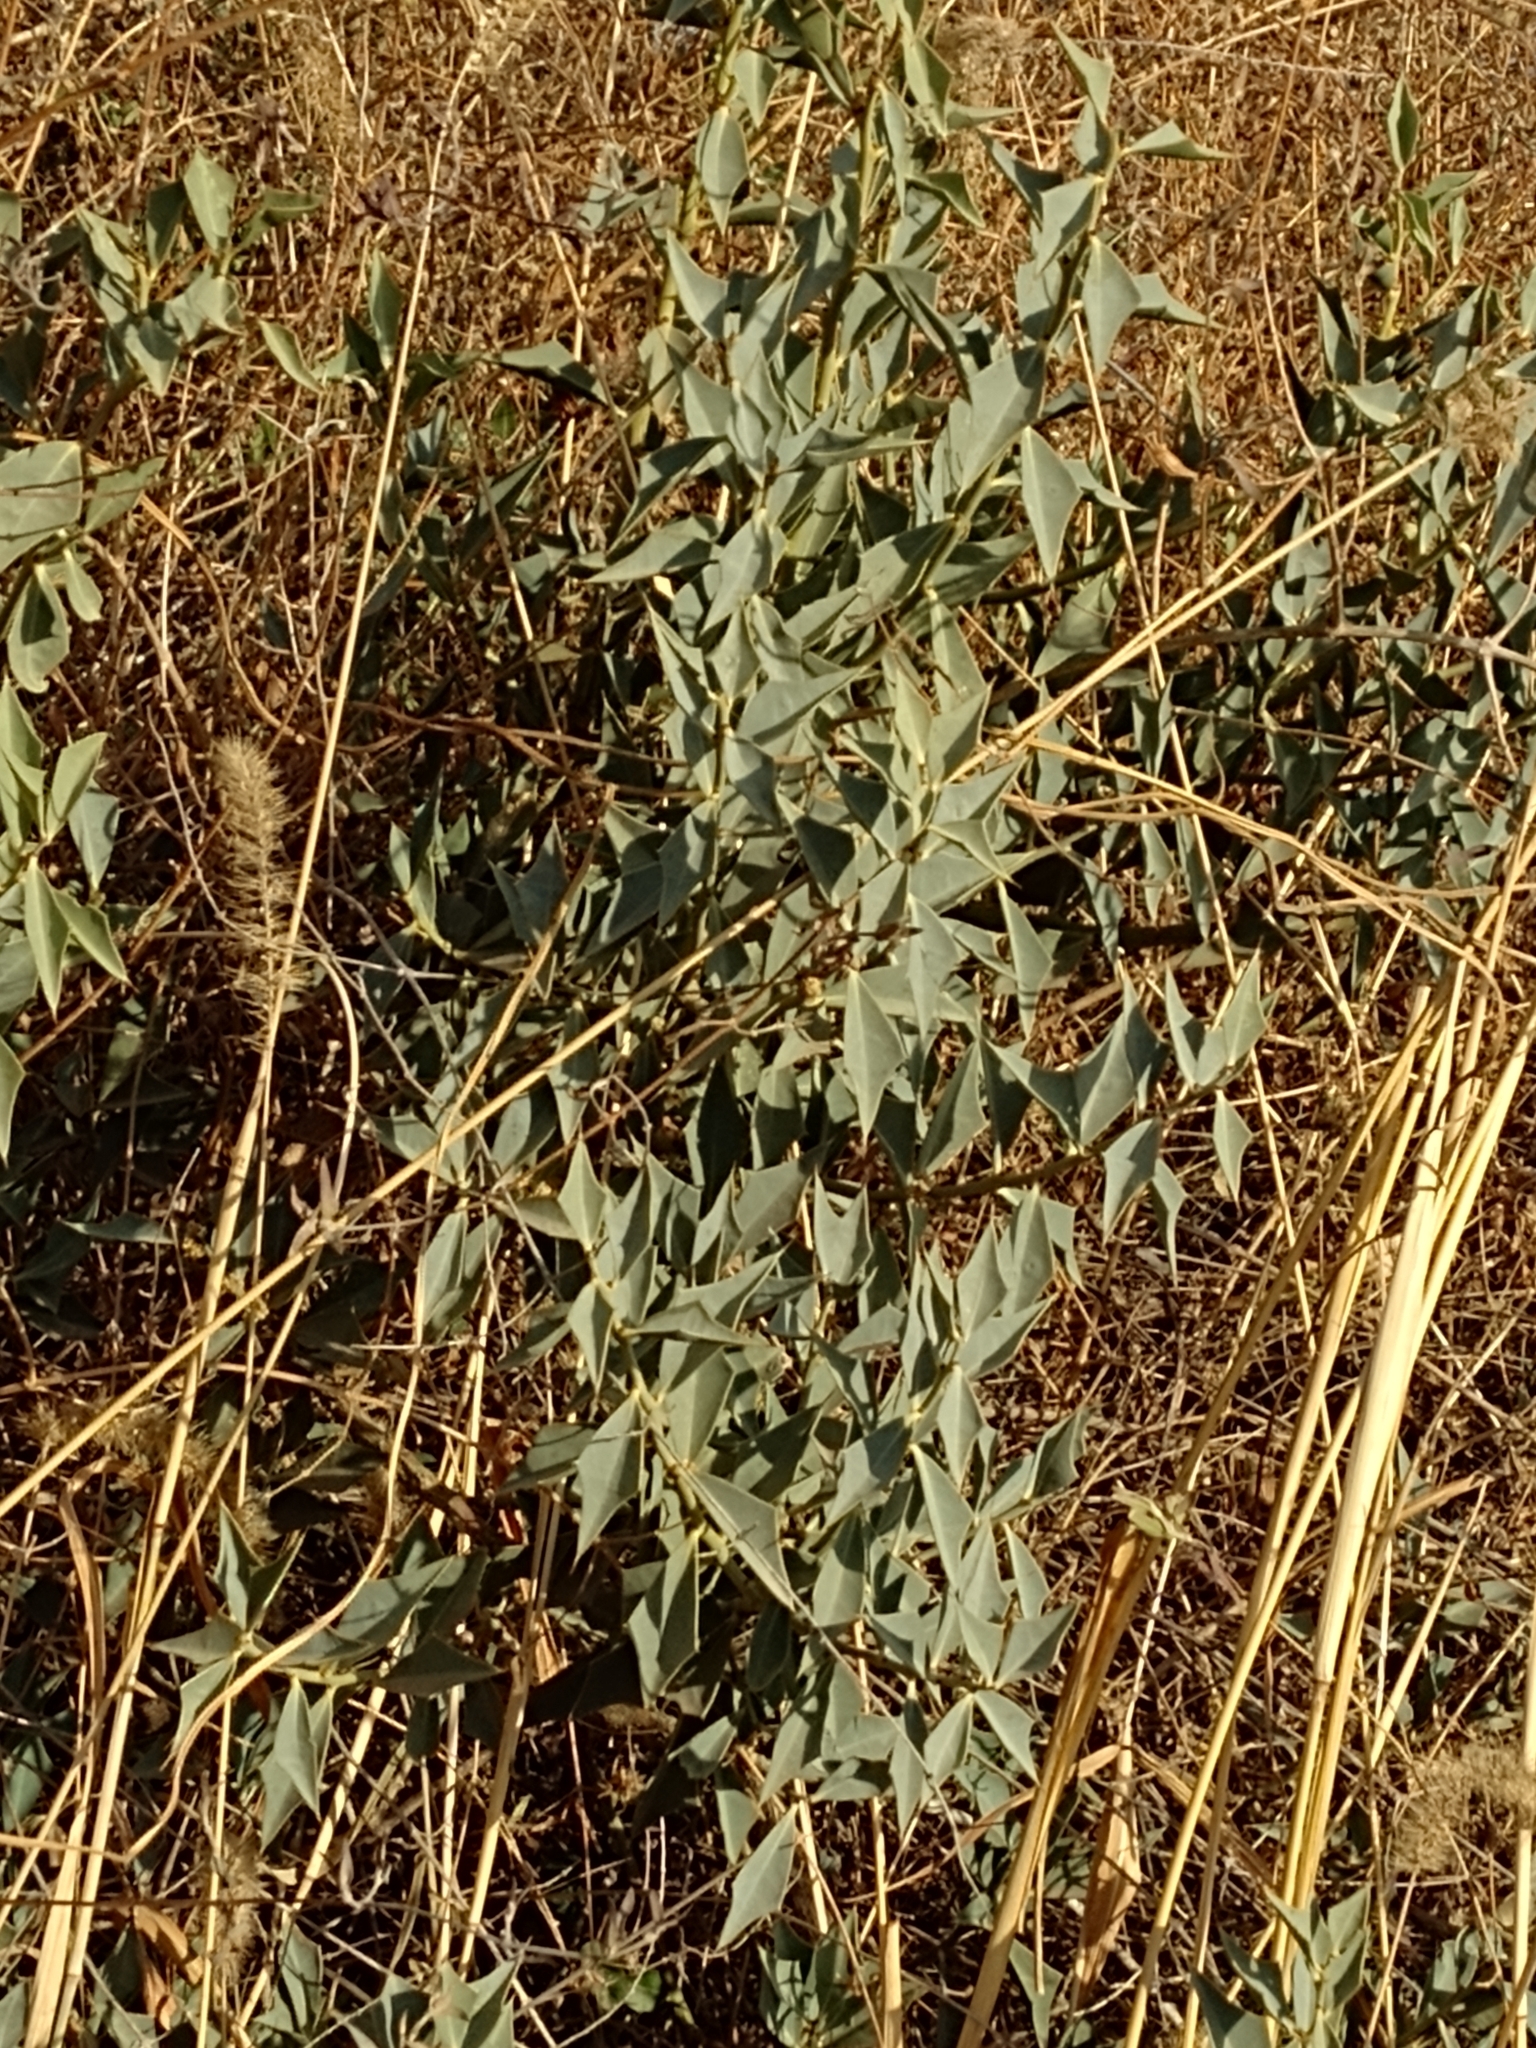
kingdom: Plantae
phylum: Tracheophyta
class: Magnoliopsida
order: Santalales
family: Cervantesiaceae
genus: Jodina
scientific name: Jodina rhombifolia
